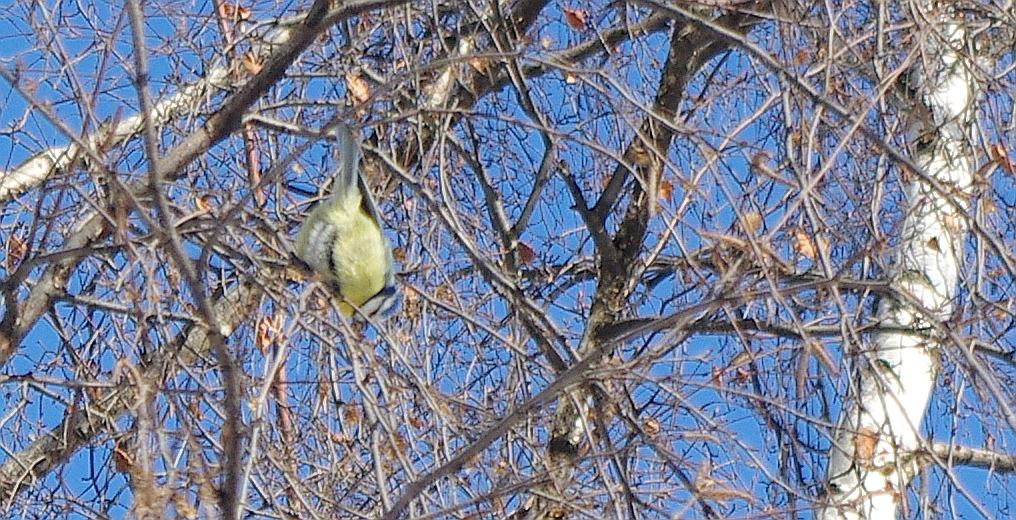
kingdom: Animalia
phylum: Chordata
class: Aves
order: Passeriformes
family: Paridae
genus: Cyanistes
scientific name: Cyanistes caeruleus
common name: Eurasian blue tit
